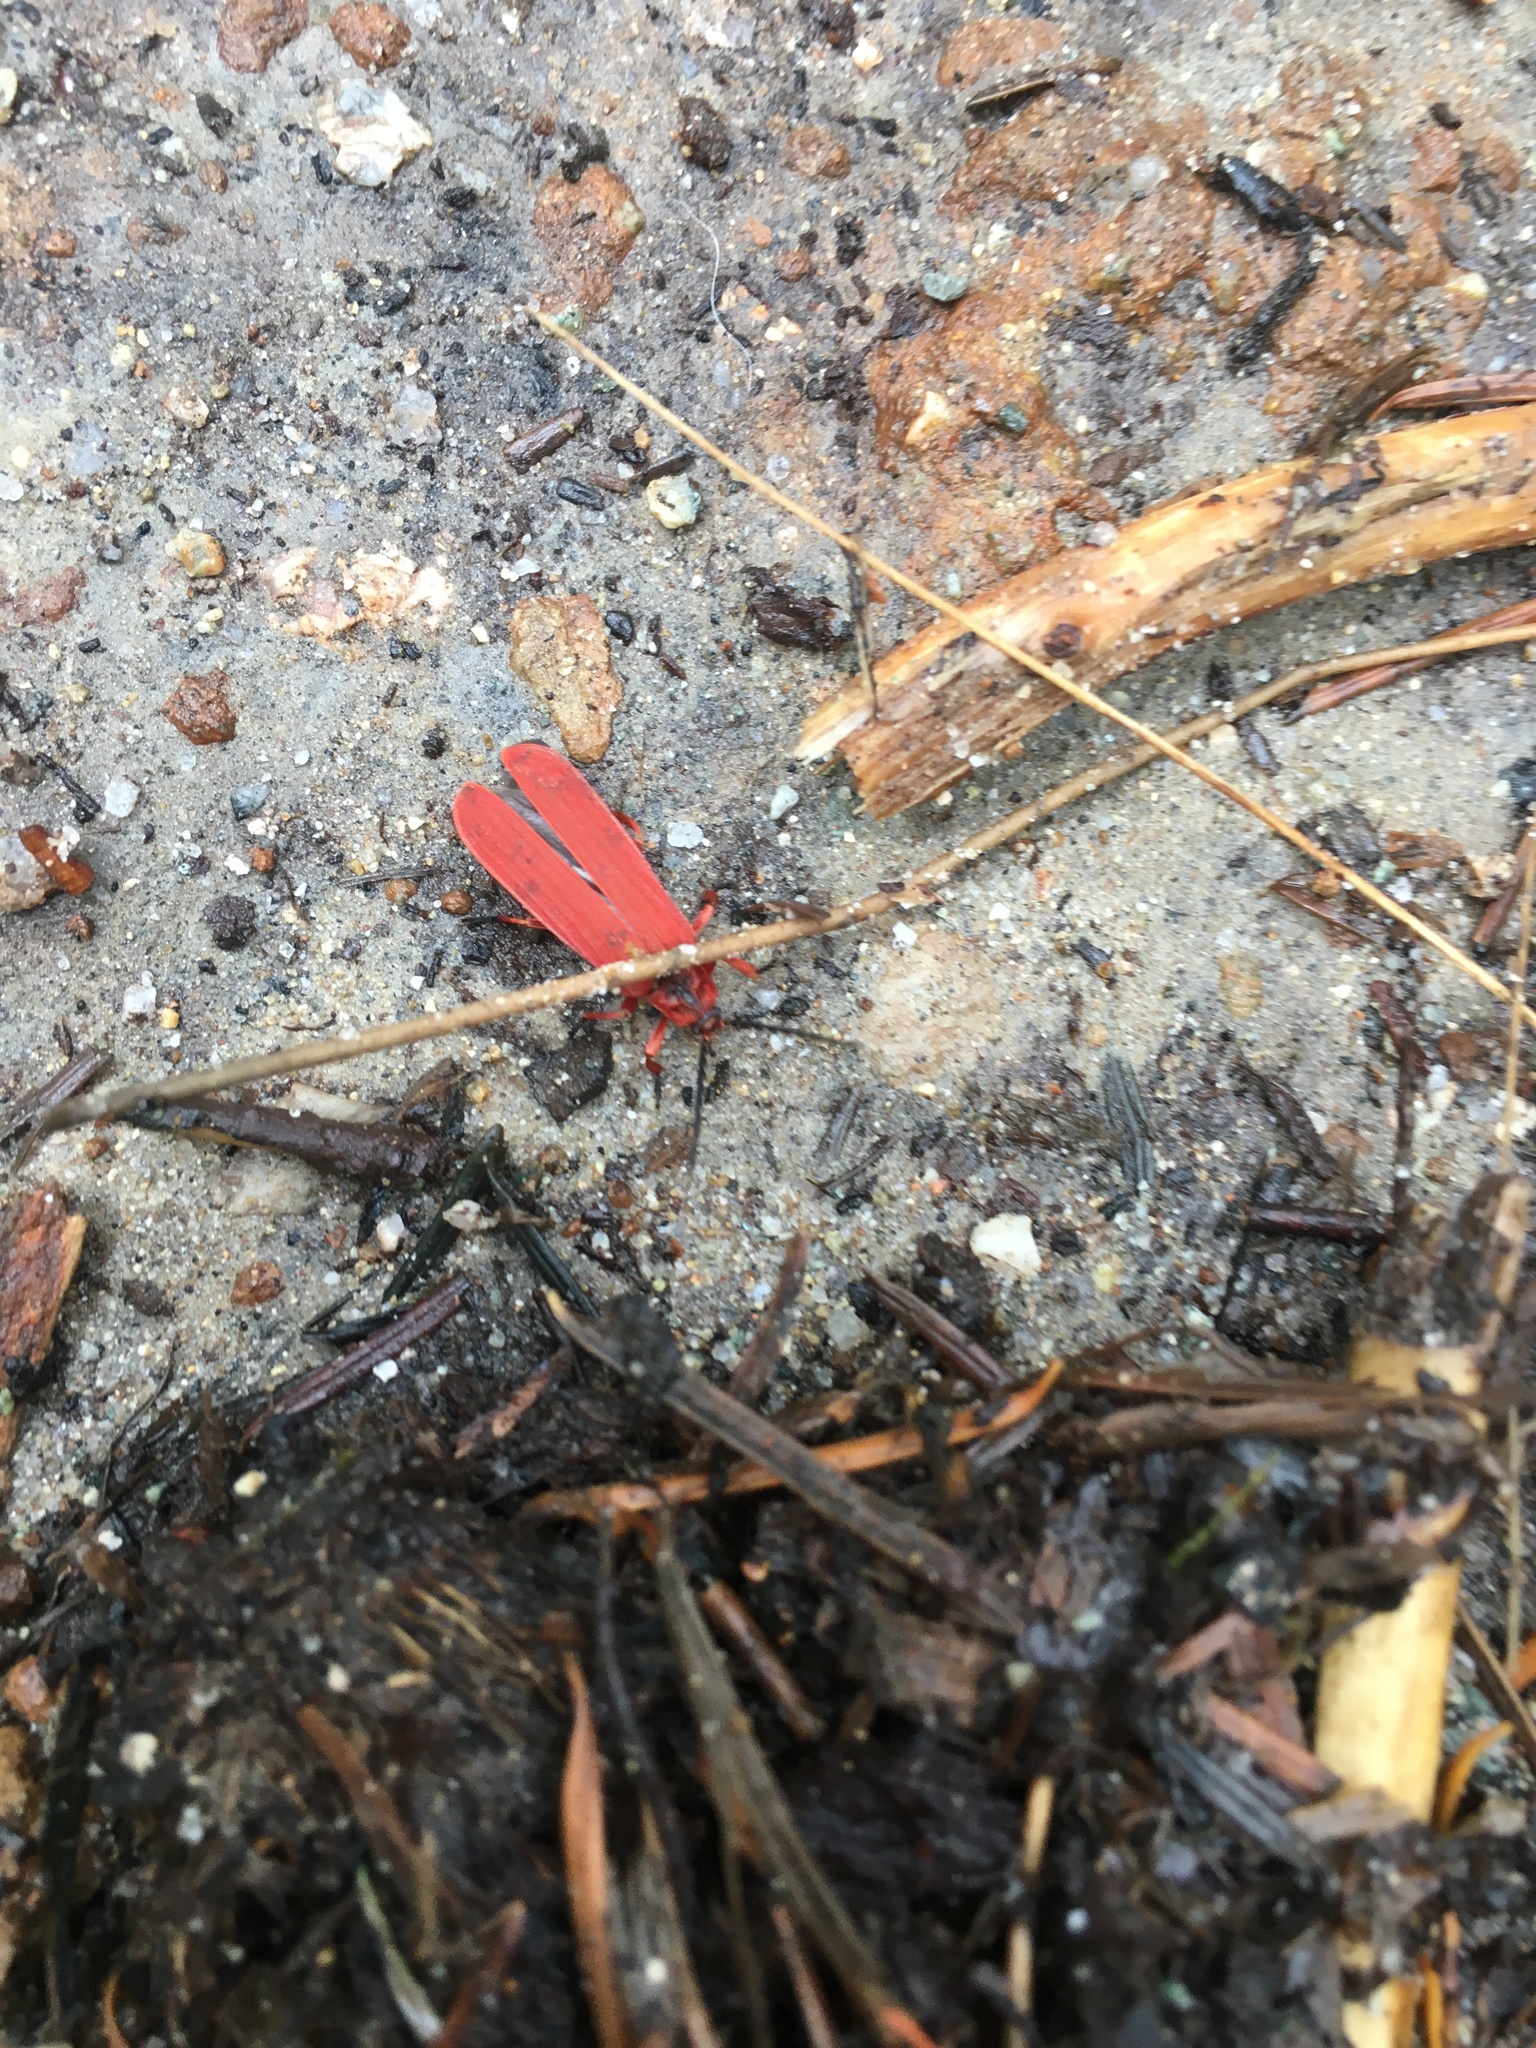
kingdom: Animalia
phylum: Arthropoda
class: Insecta
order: Coleoptera
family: Lycidae
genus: Dictyoptera
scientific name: Dictyoptera simplicipes
